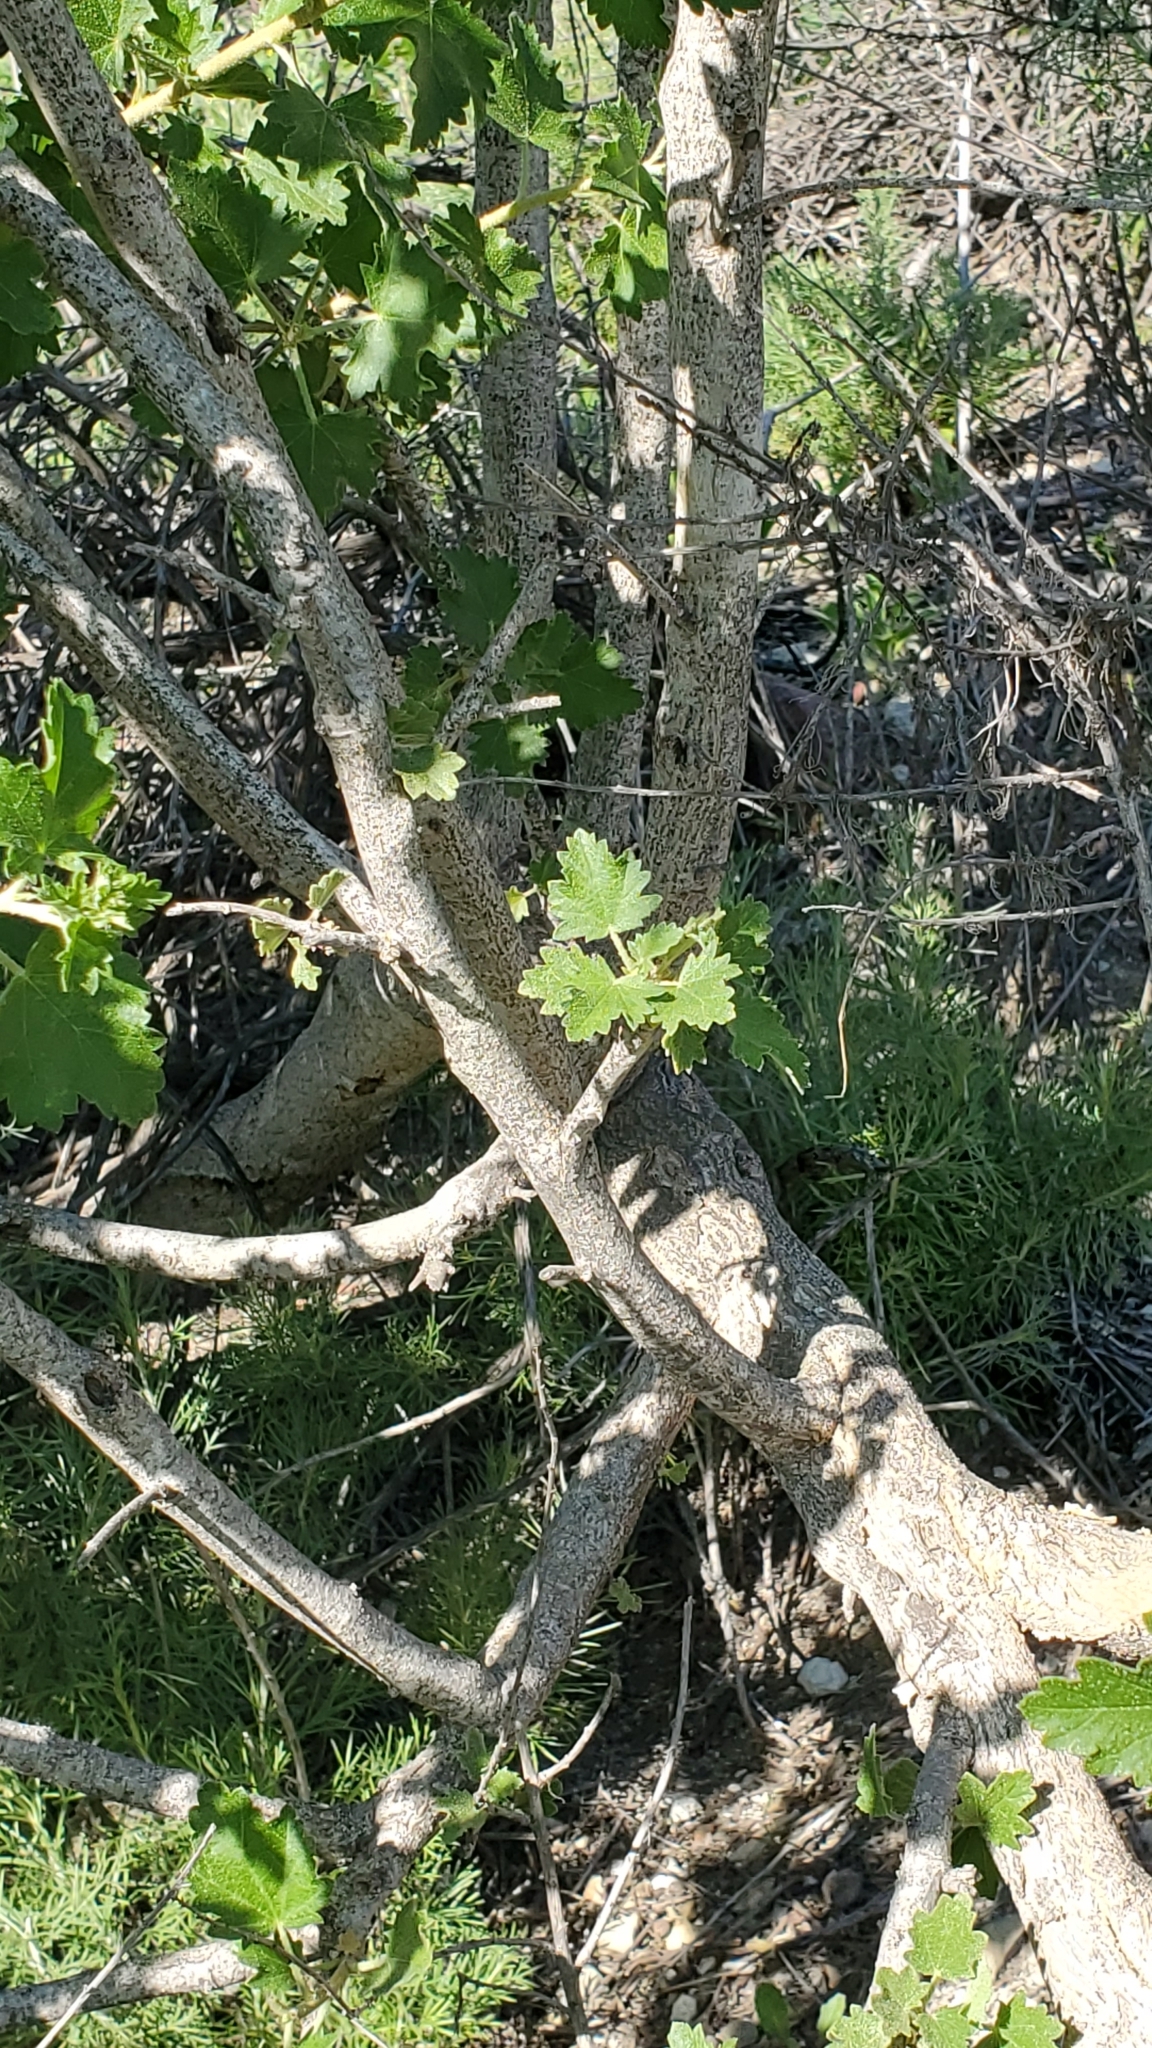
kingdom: Plantae
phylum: Tracheophyta
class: Magnoliopsida
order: Malvales
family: Malvaceae
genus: Malacothamnus
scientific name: Malacothamnus fasciculatus
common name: Sant cruz island bush-mallow
